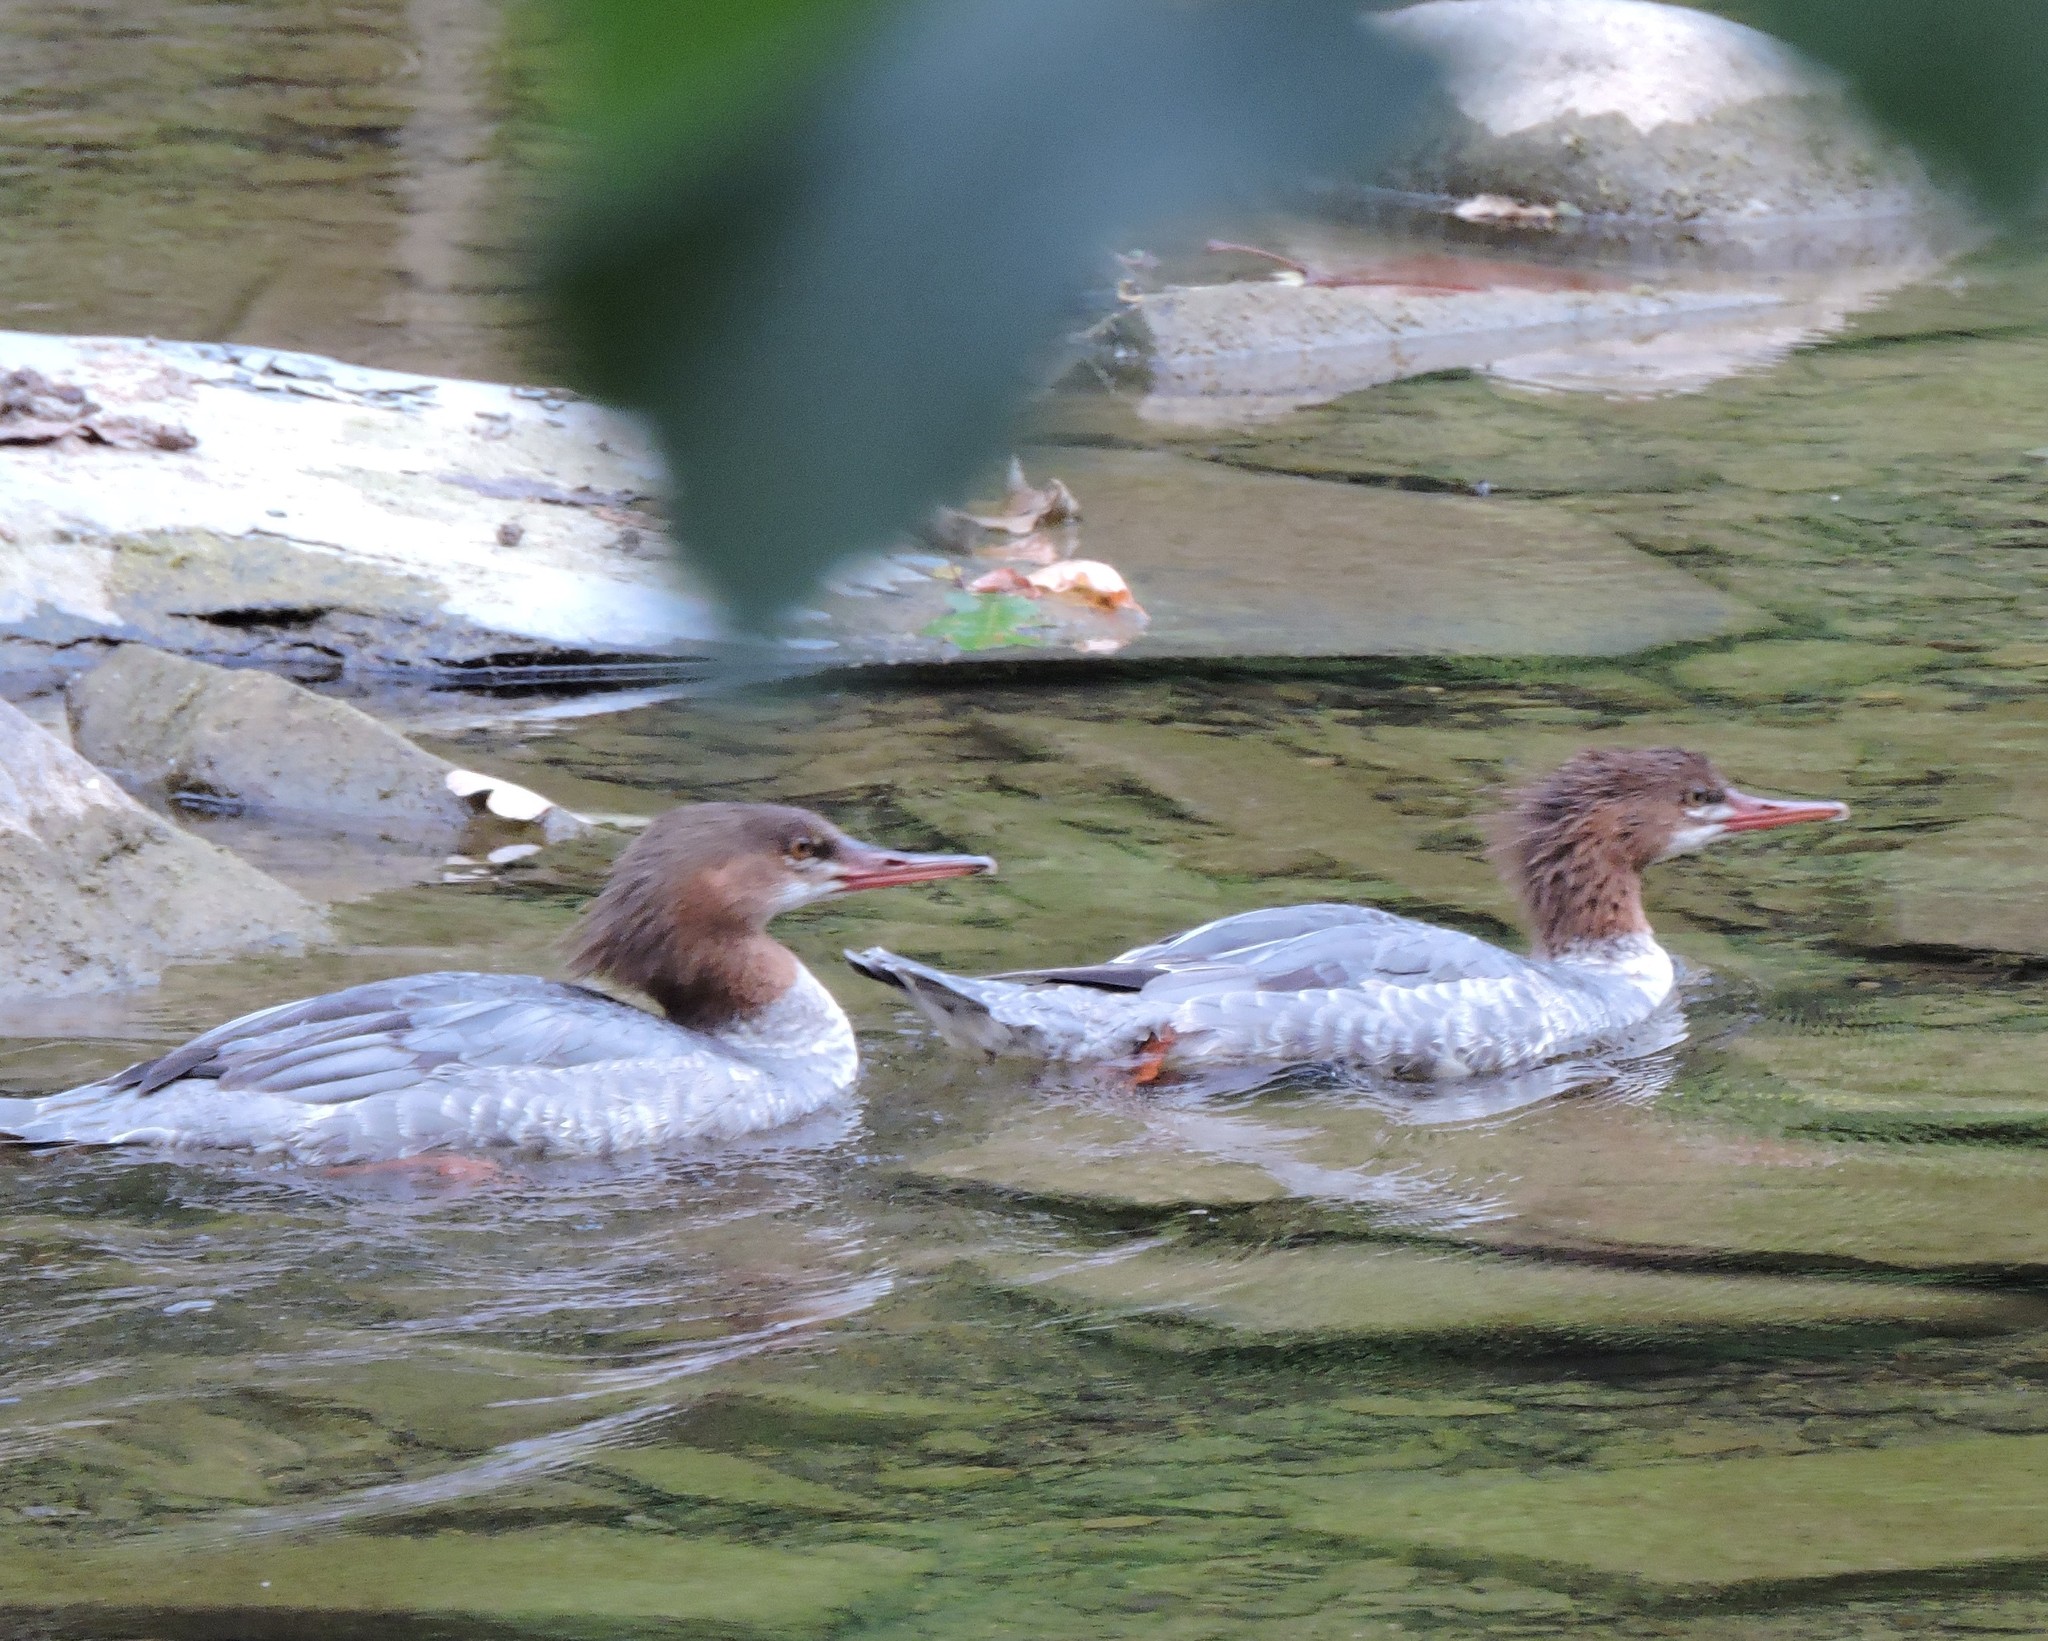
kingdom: Animalia
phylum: Chordata
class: Aves
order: Anseriformes
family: Anatidae
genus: Mergus
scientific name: Mergus merganser
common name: Common merganser
